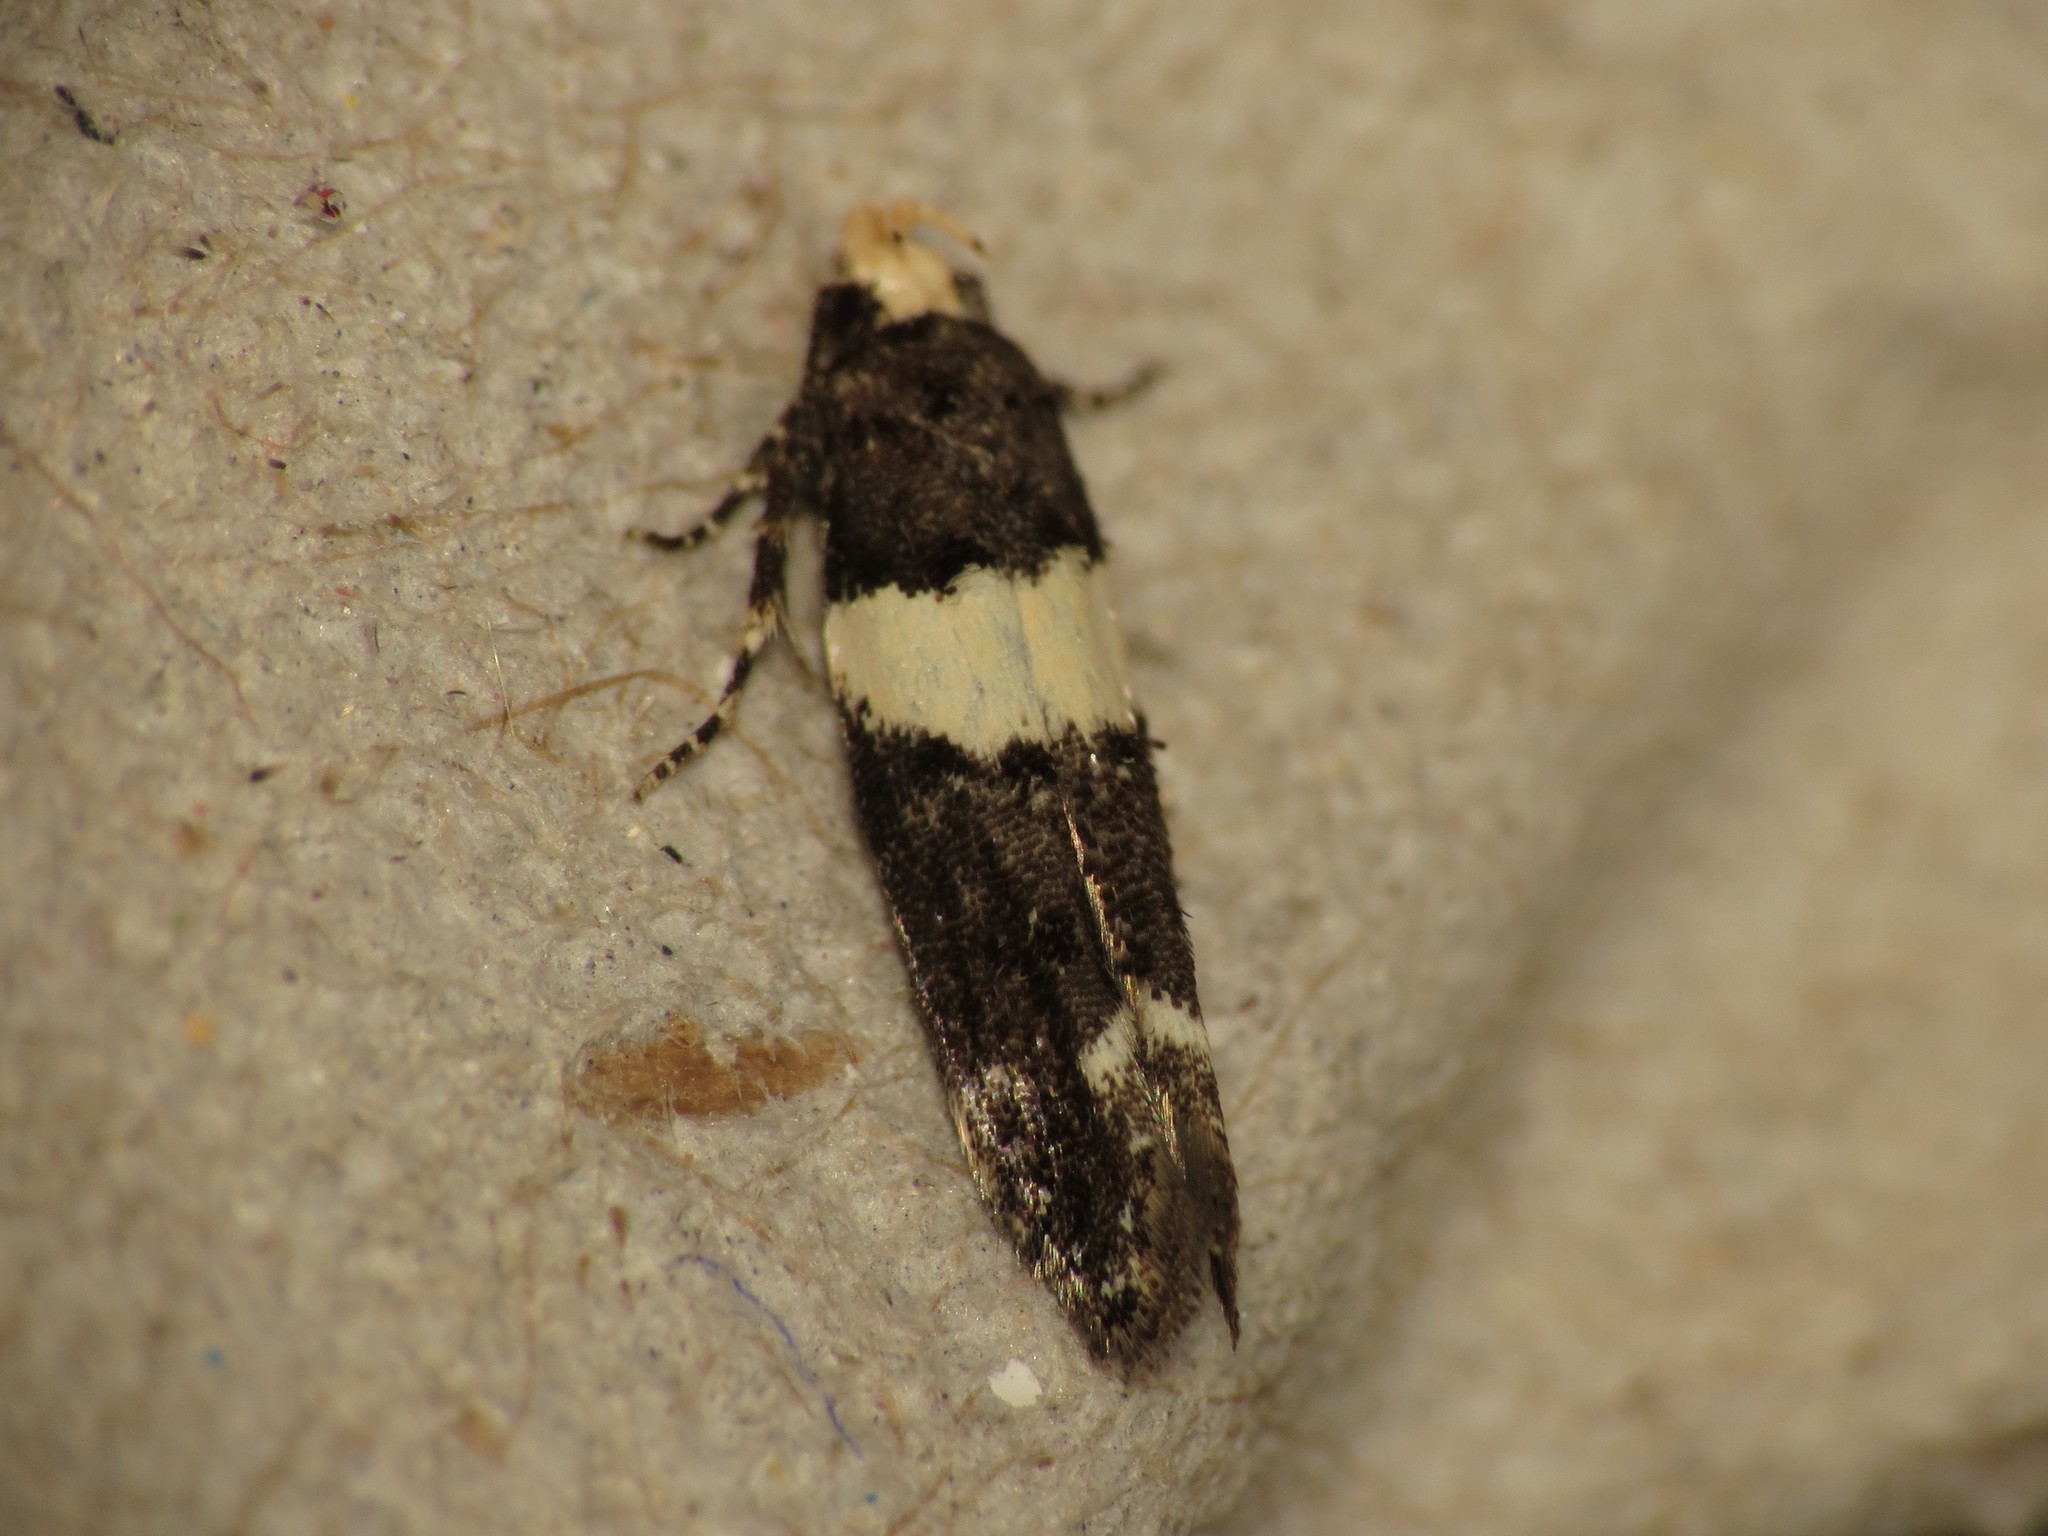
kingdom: Animalia
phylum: Arthropoda
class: Insecta
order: Lepidoptera
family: Gelechiidae
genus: Recurvaria
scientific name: Recurvaria leucatella
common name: White-barred groundling
